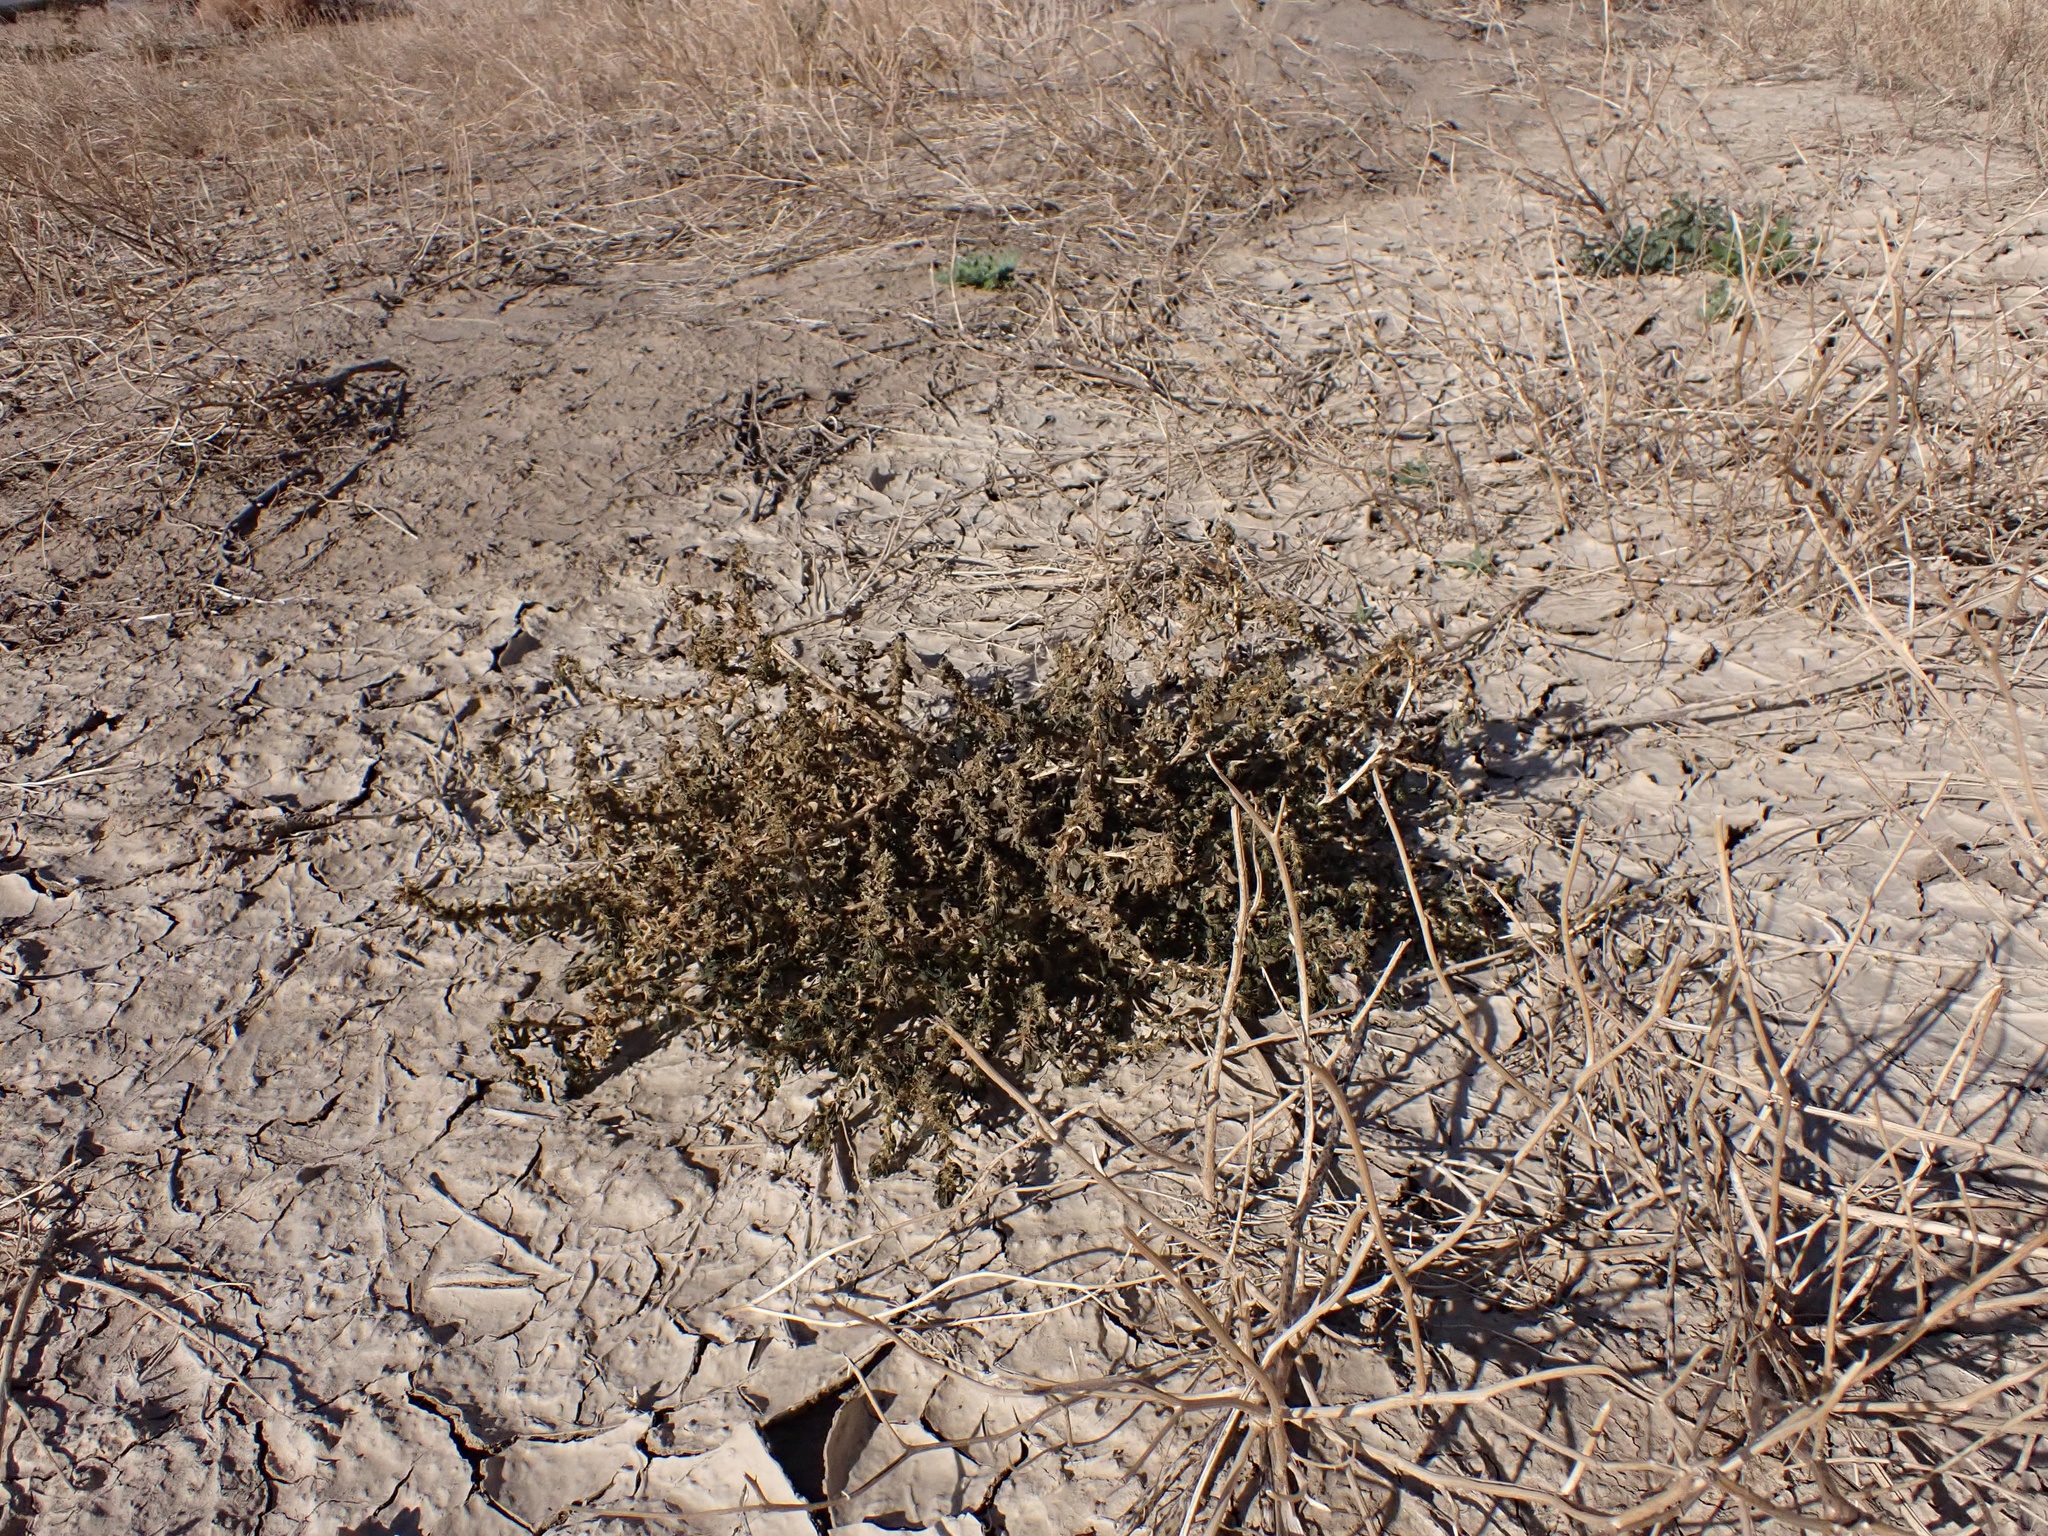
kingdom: Plantae
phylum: Tracheophyta
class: Magnoliopsida
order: Caryophyllales
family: Amaranthaceae
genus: Amaranthus
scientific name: Amaranthus albus
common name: White pigweed
